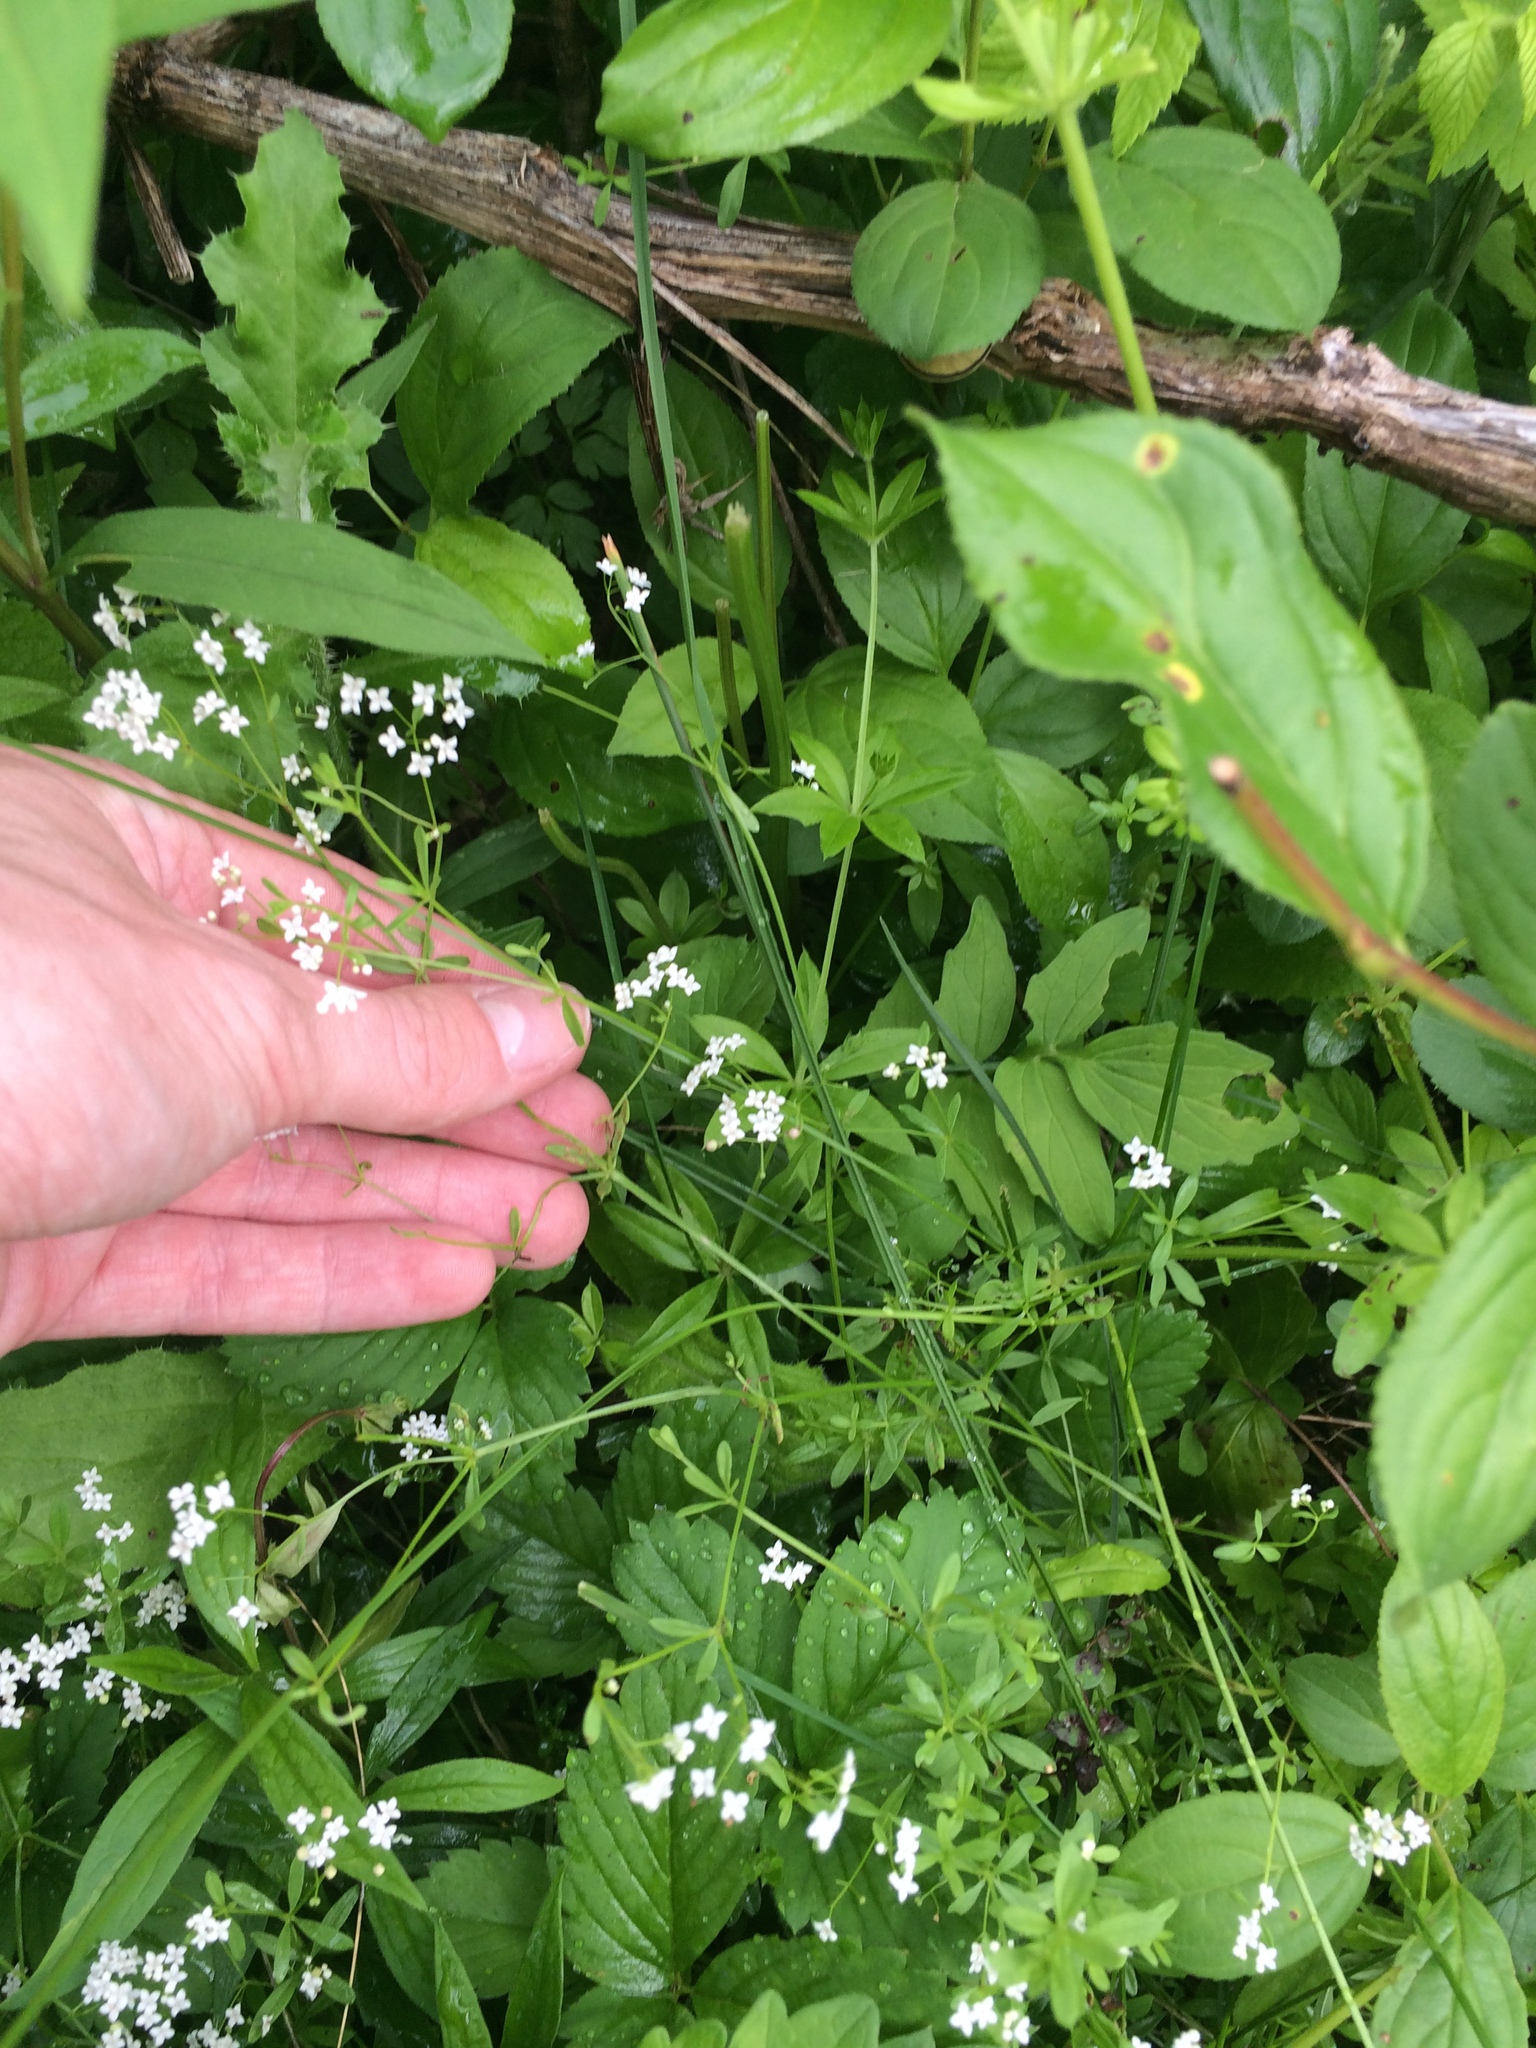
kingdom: Plantae
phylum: Tracheophyta
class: Magnoliopsida
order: Gentianales
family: Rubiaceae
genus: Galium
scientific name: Galium palustre
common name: Common marsh-bedstraw
